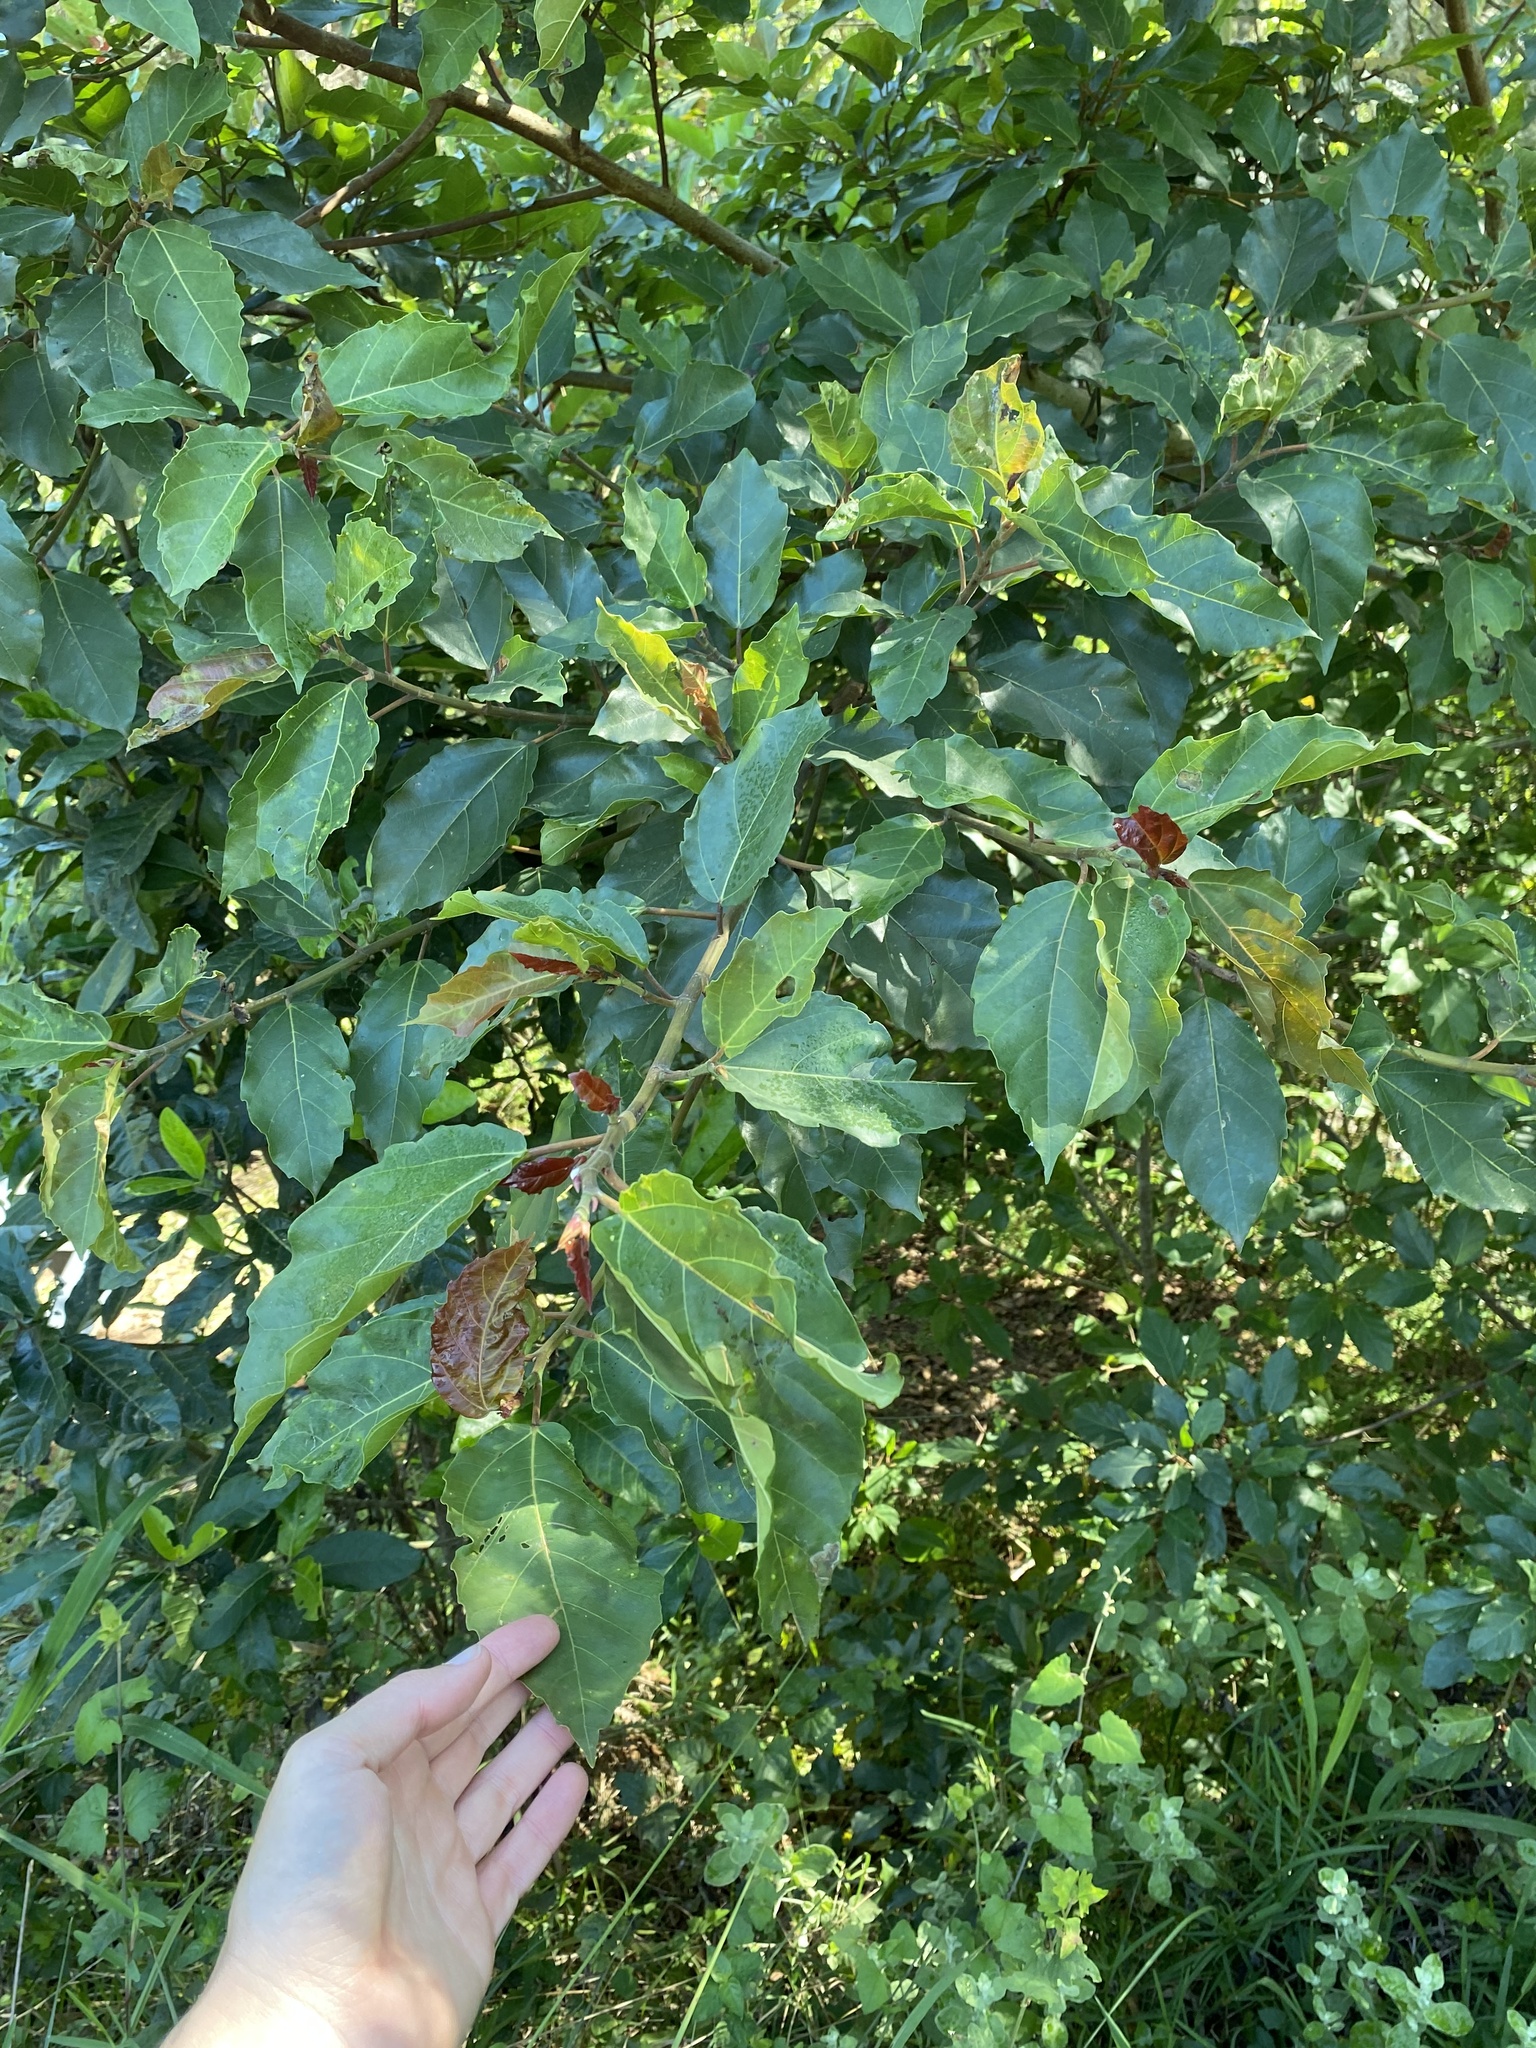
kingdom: Plantae
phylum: Tracheophyta
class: Magnoliopsida
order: Rosales
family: Moraceae
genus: Ficus
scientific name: Ficus sur
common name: Cape fig
